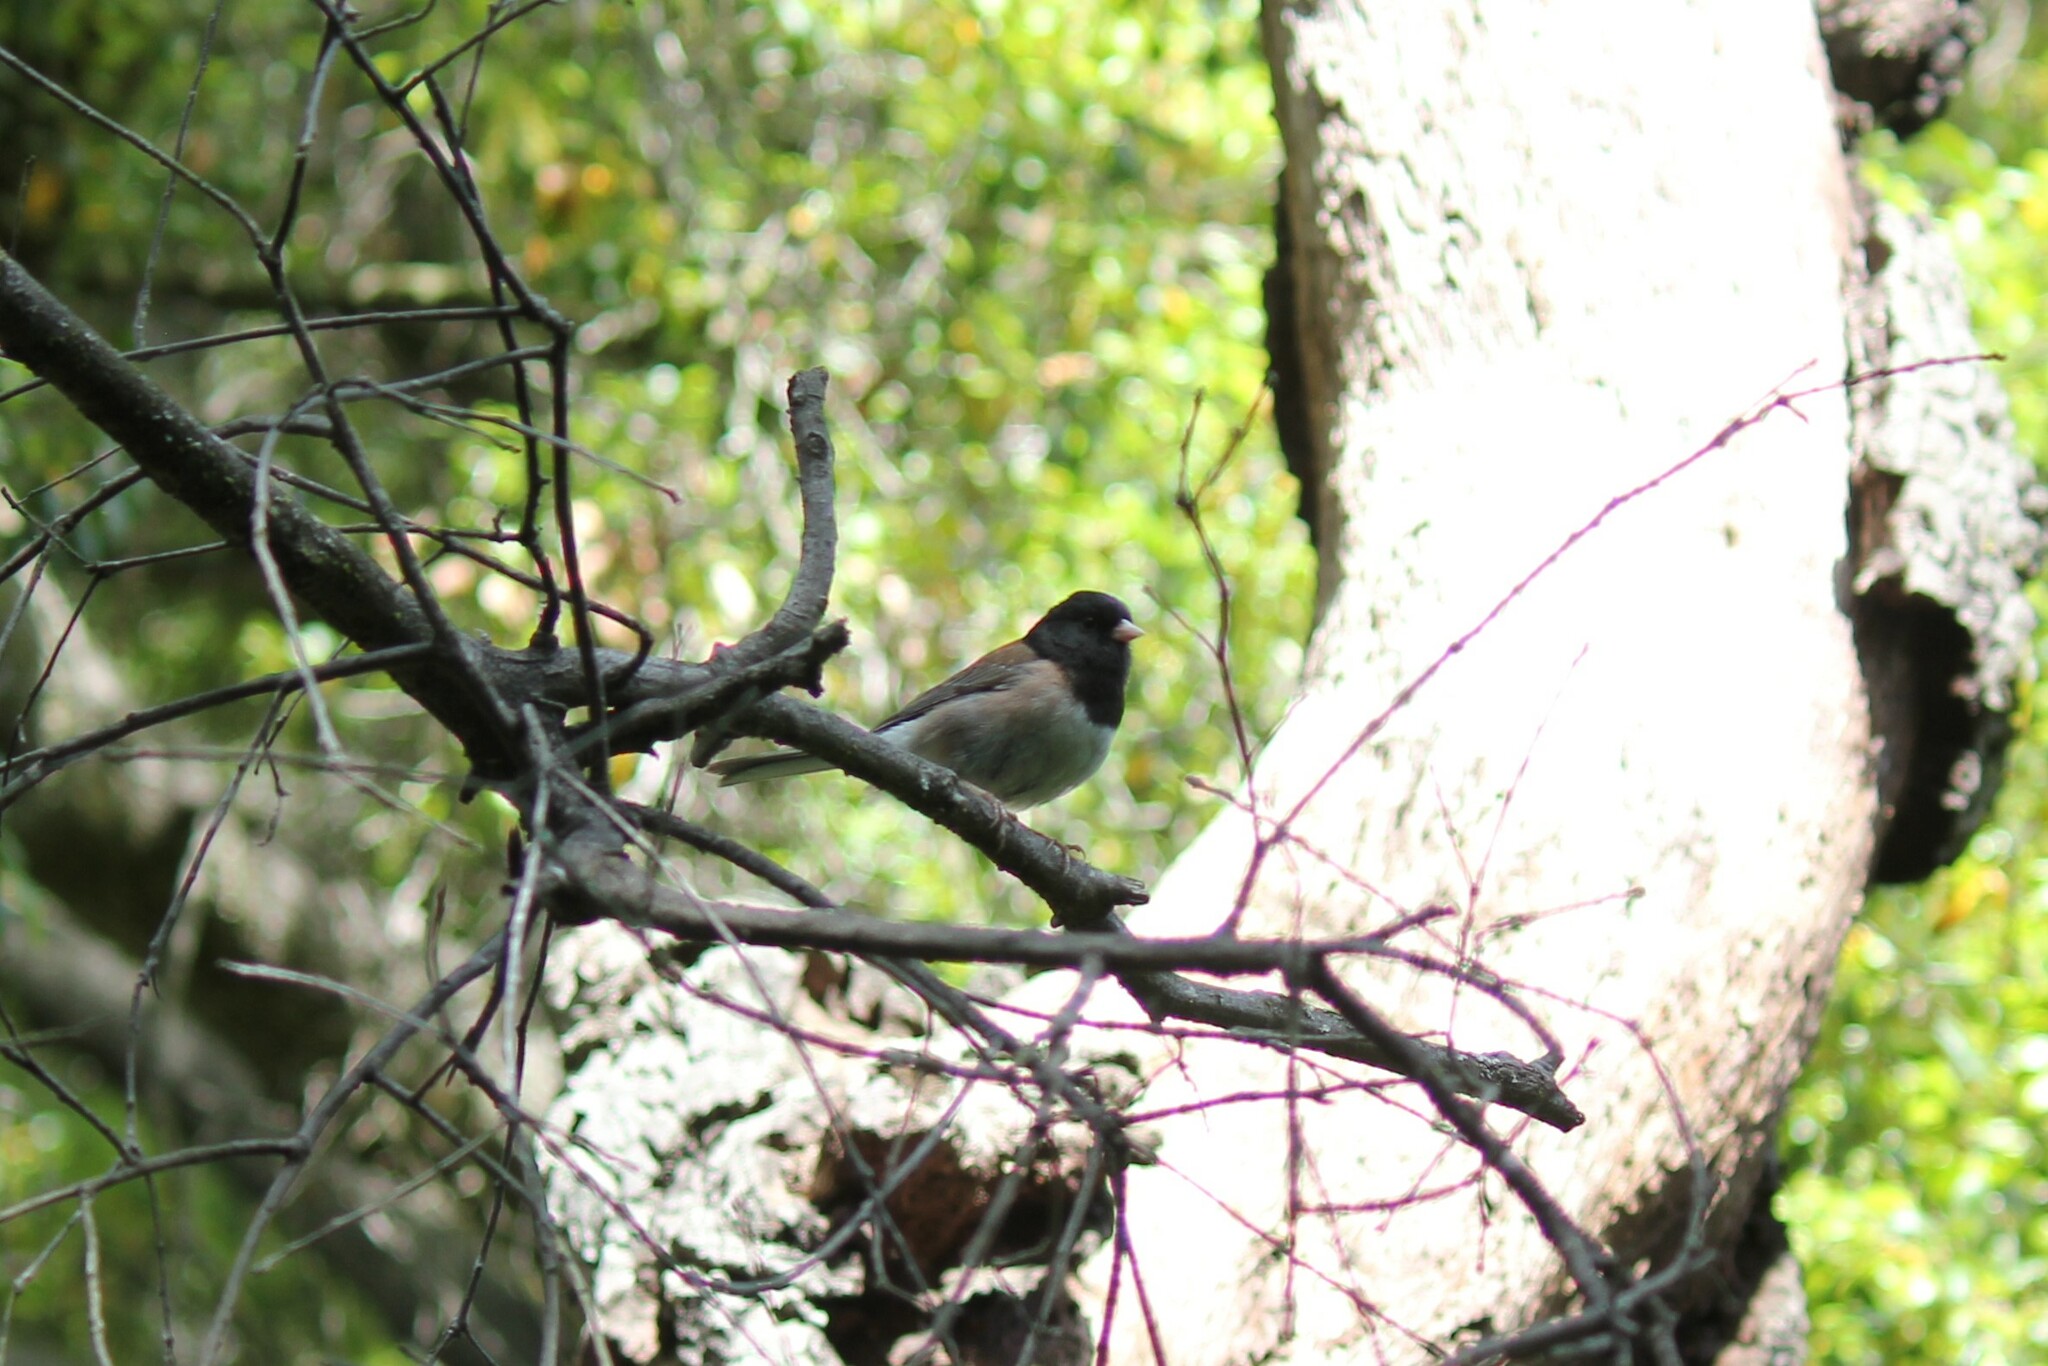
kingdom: Animalia
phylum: Chordata
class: Aves
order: Passeriformes
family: Passerellidae
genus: Junco
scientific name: Junco hyemalis
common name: Dark-eyed junco
